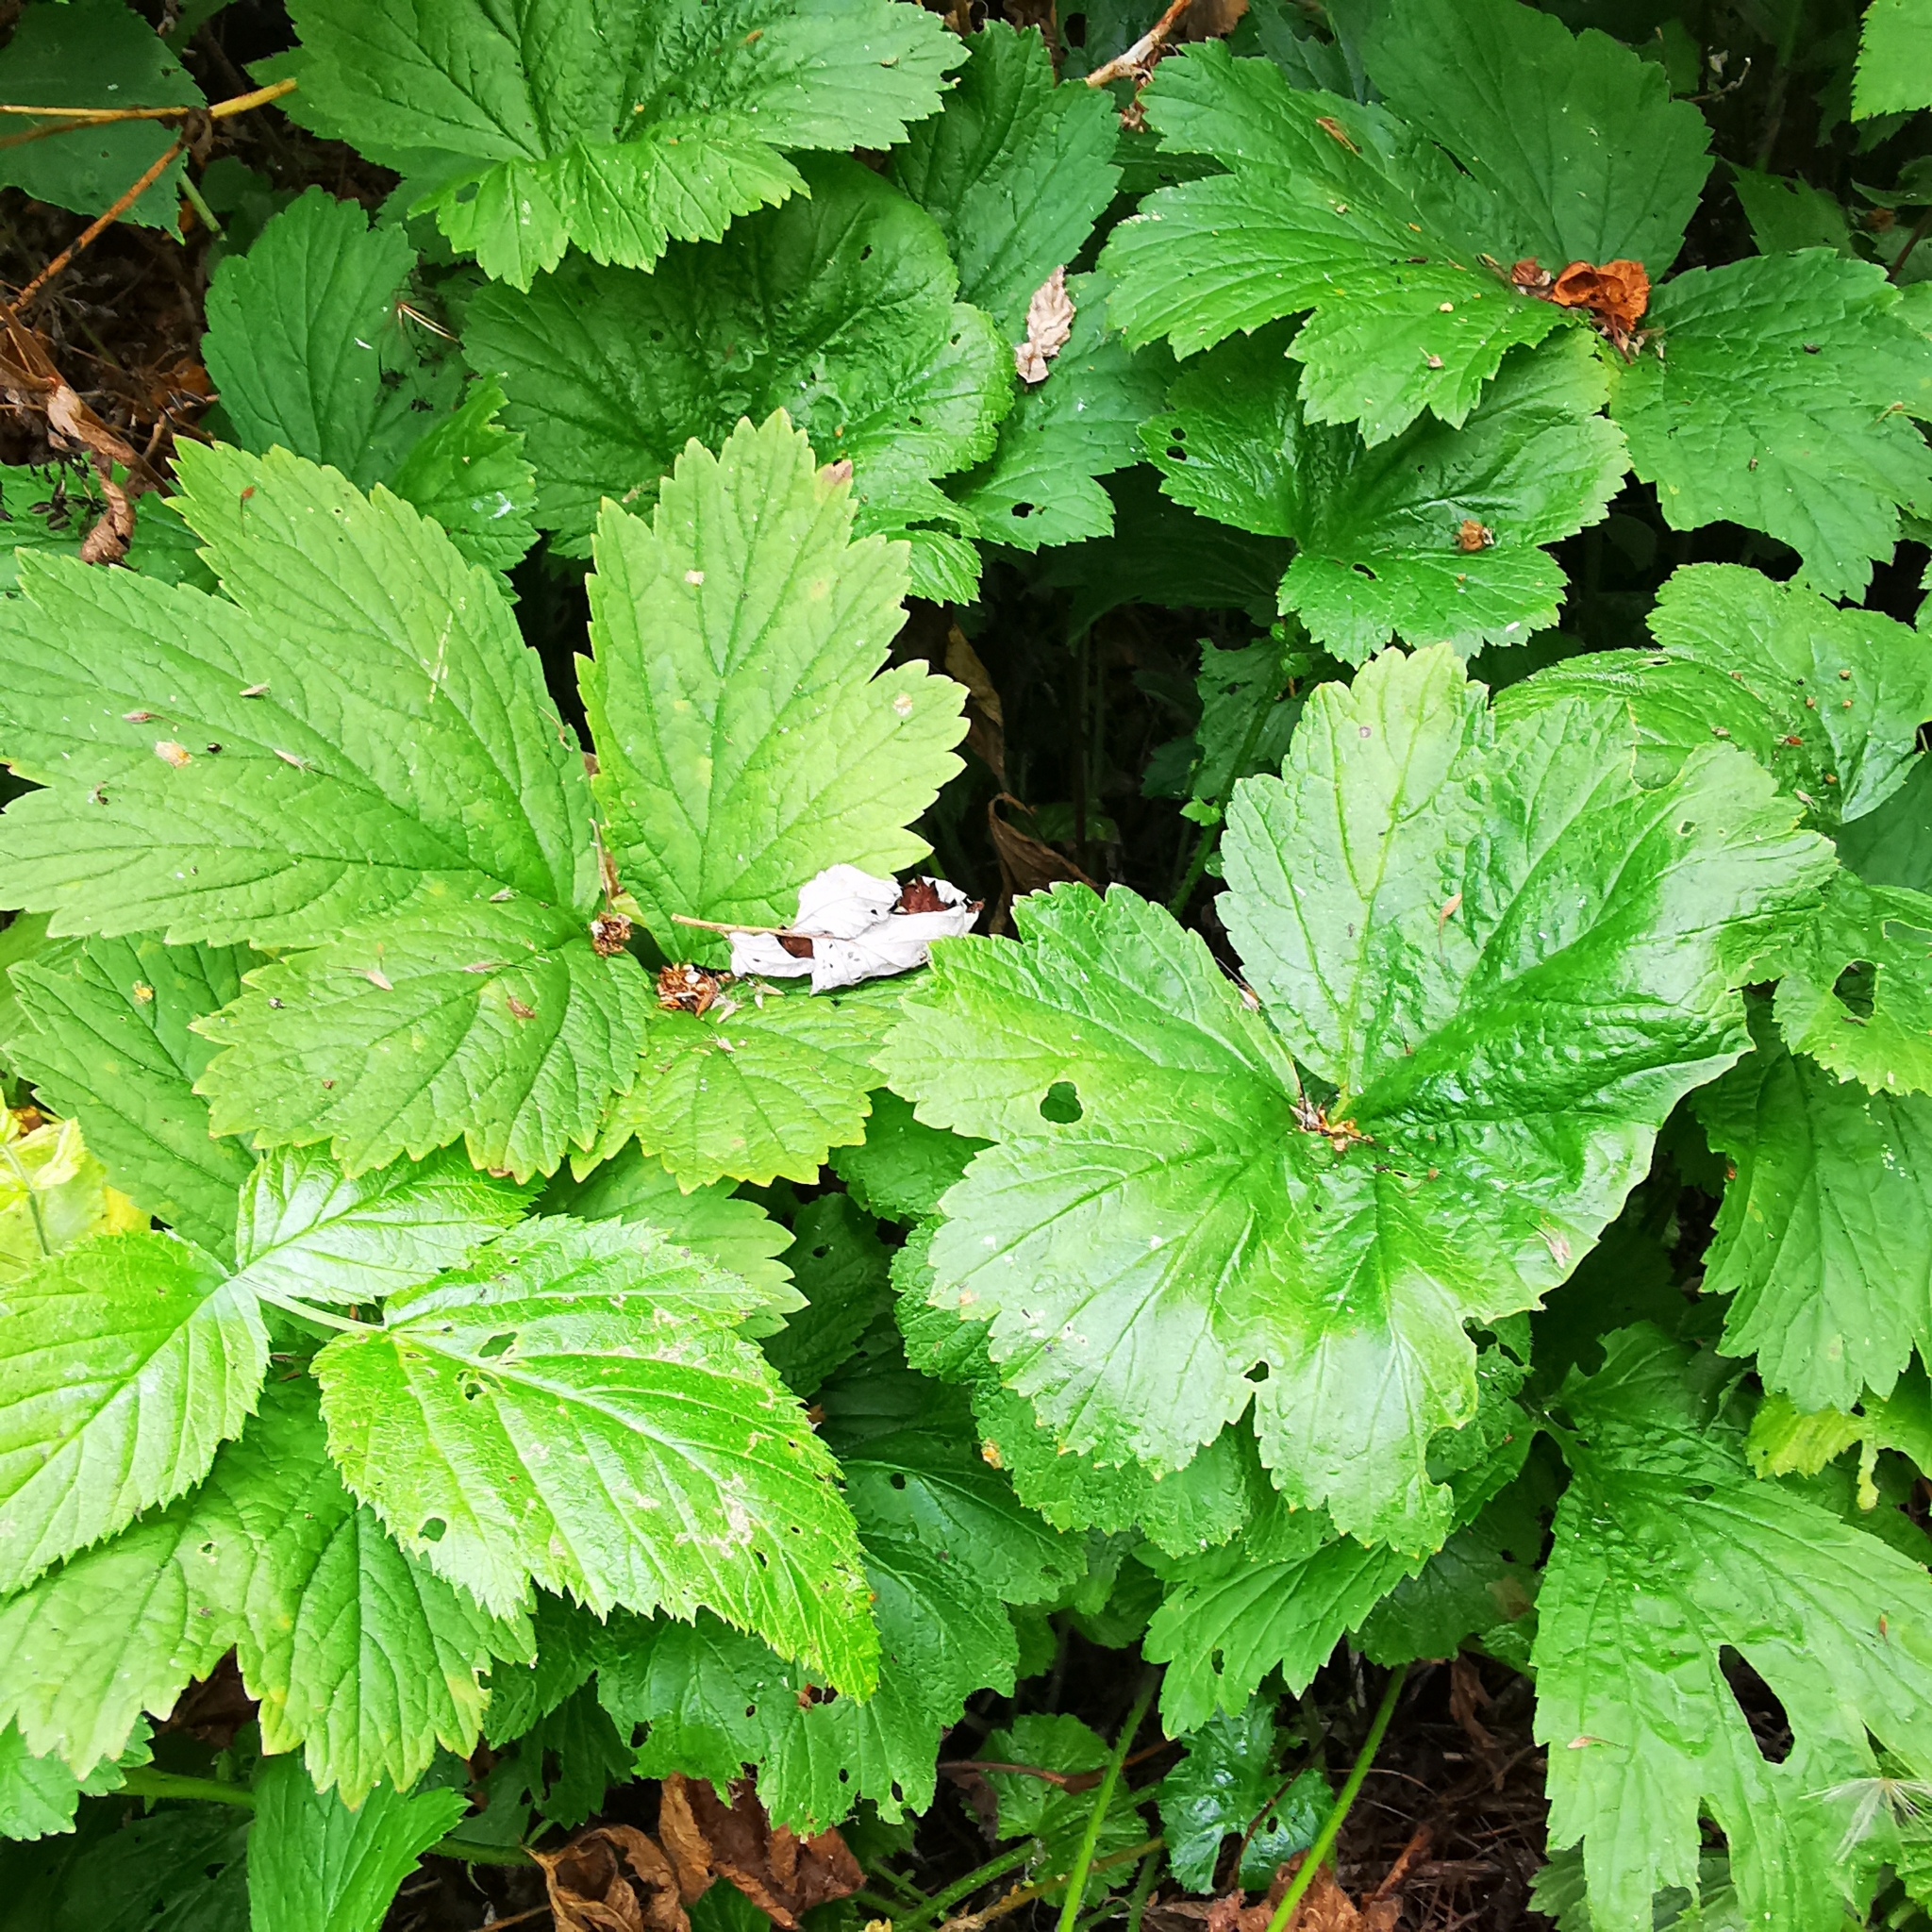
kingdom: Plantae
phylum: Tracheophyta
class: Magnoliopsida
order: Rosales
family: Rosaceae
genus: Geum
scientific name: Geum rivale
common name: Water avens
